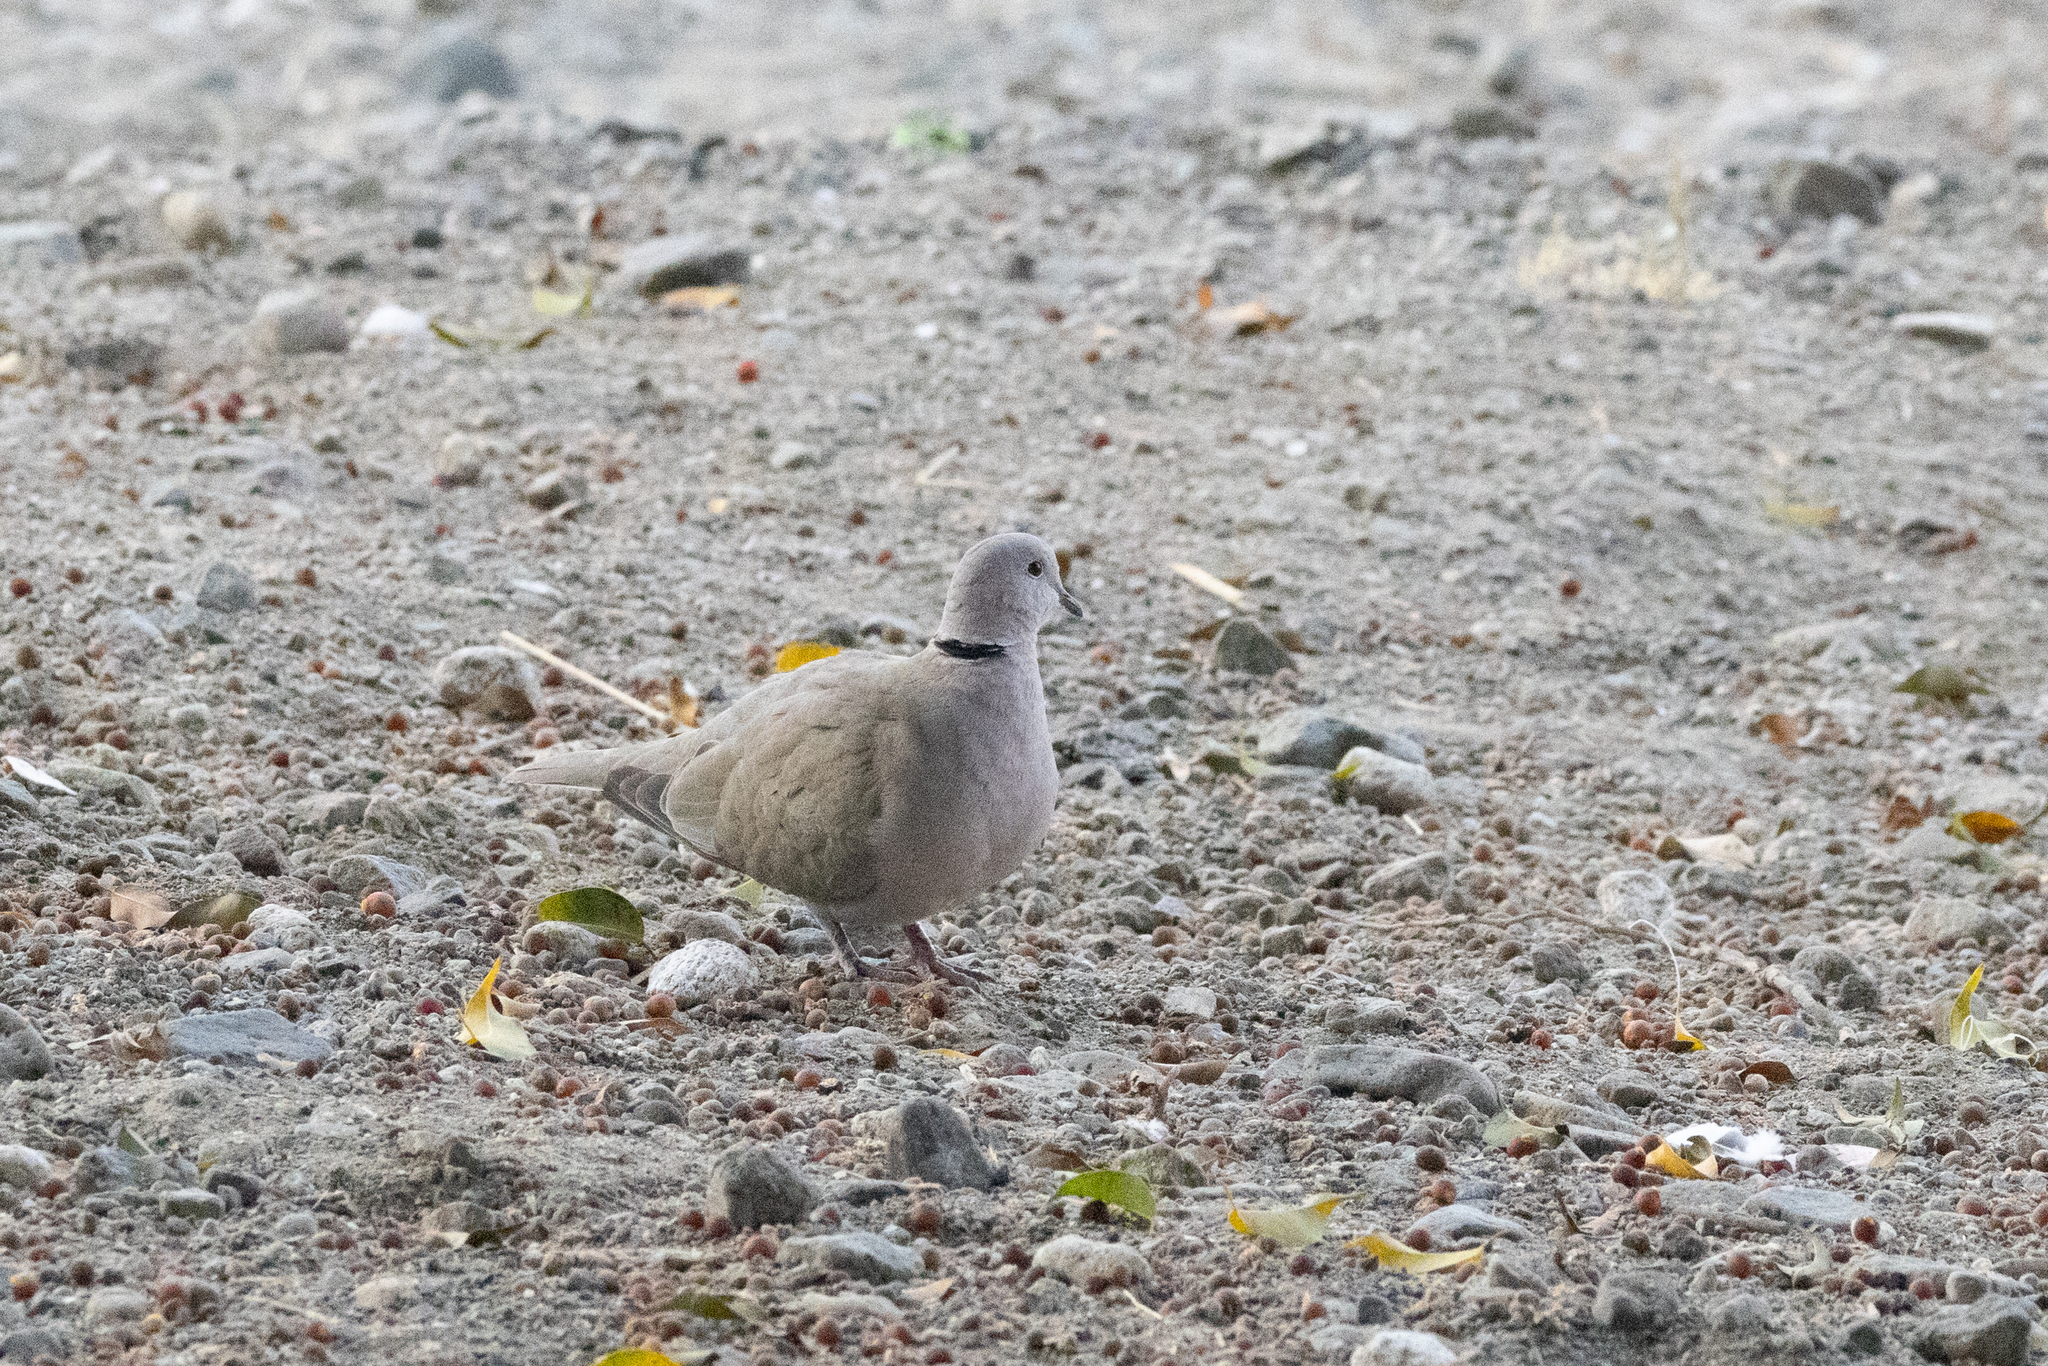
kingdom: Animalia
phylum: Chordata
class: Aves
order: Columbiformes
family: Columbidae
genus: Streptopelia
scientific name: Streptopelia decaocto
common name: Eurasian collared dove
